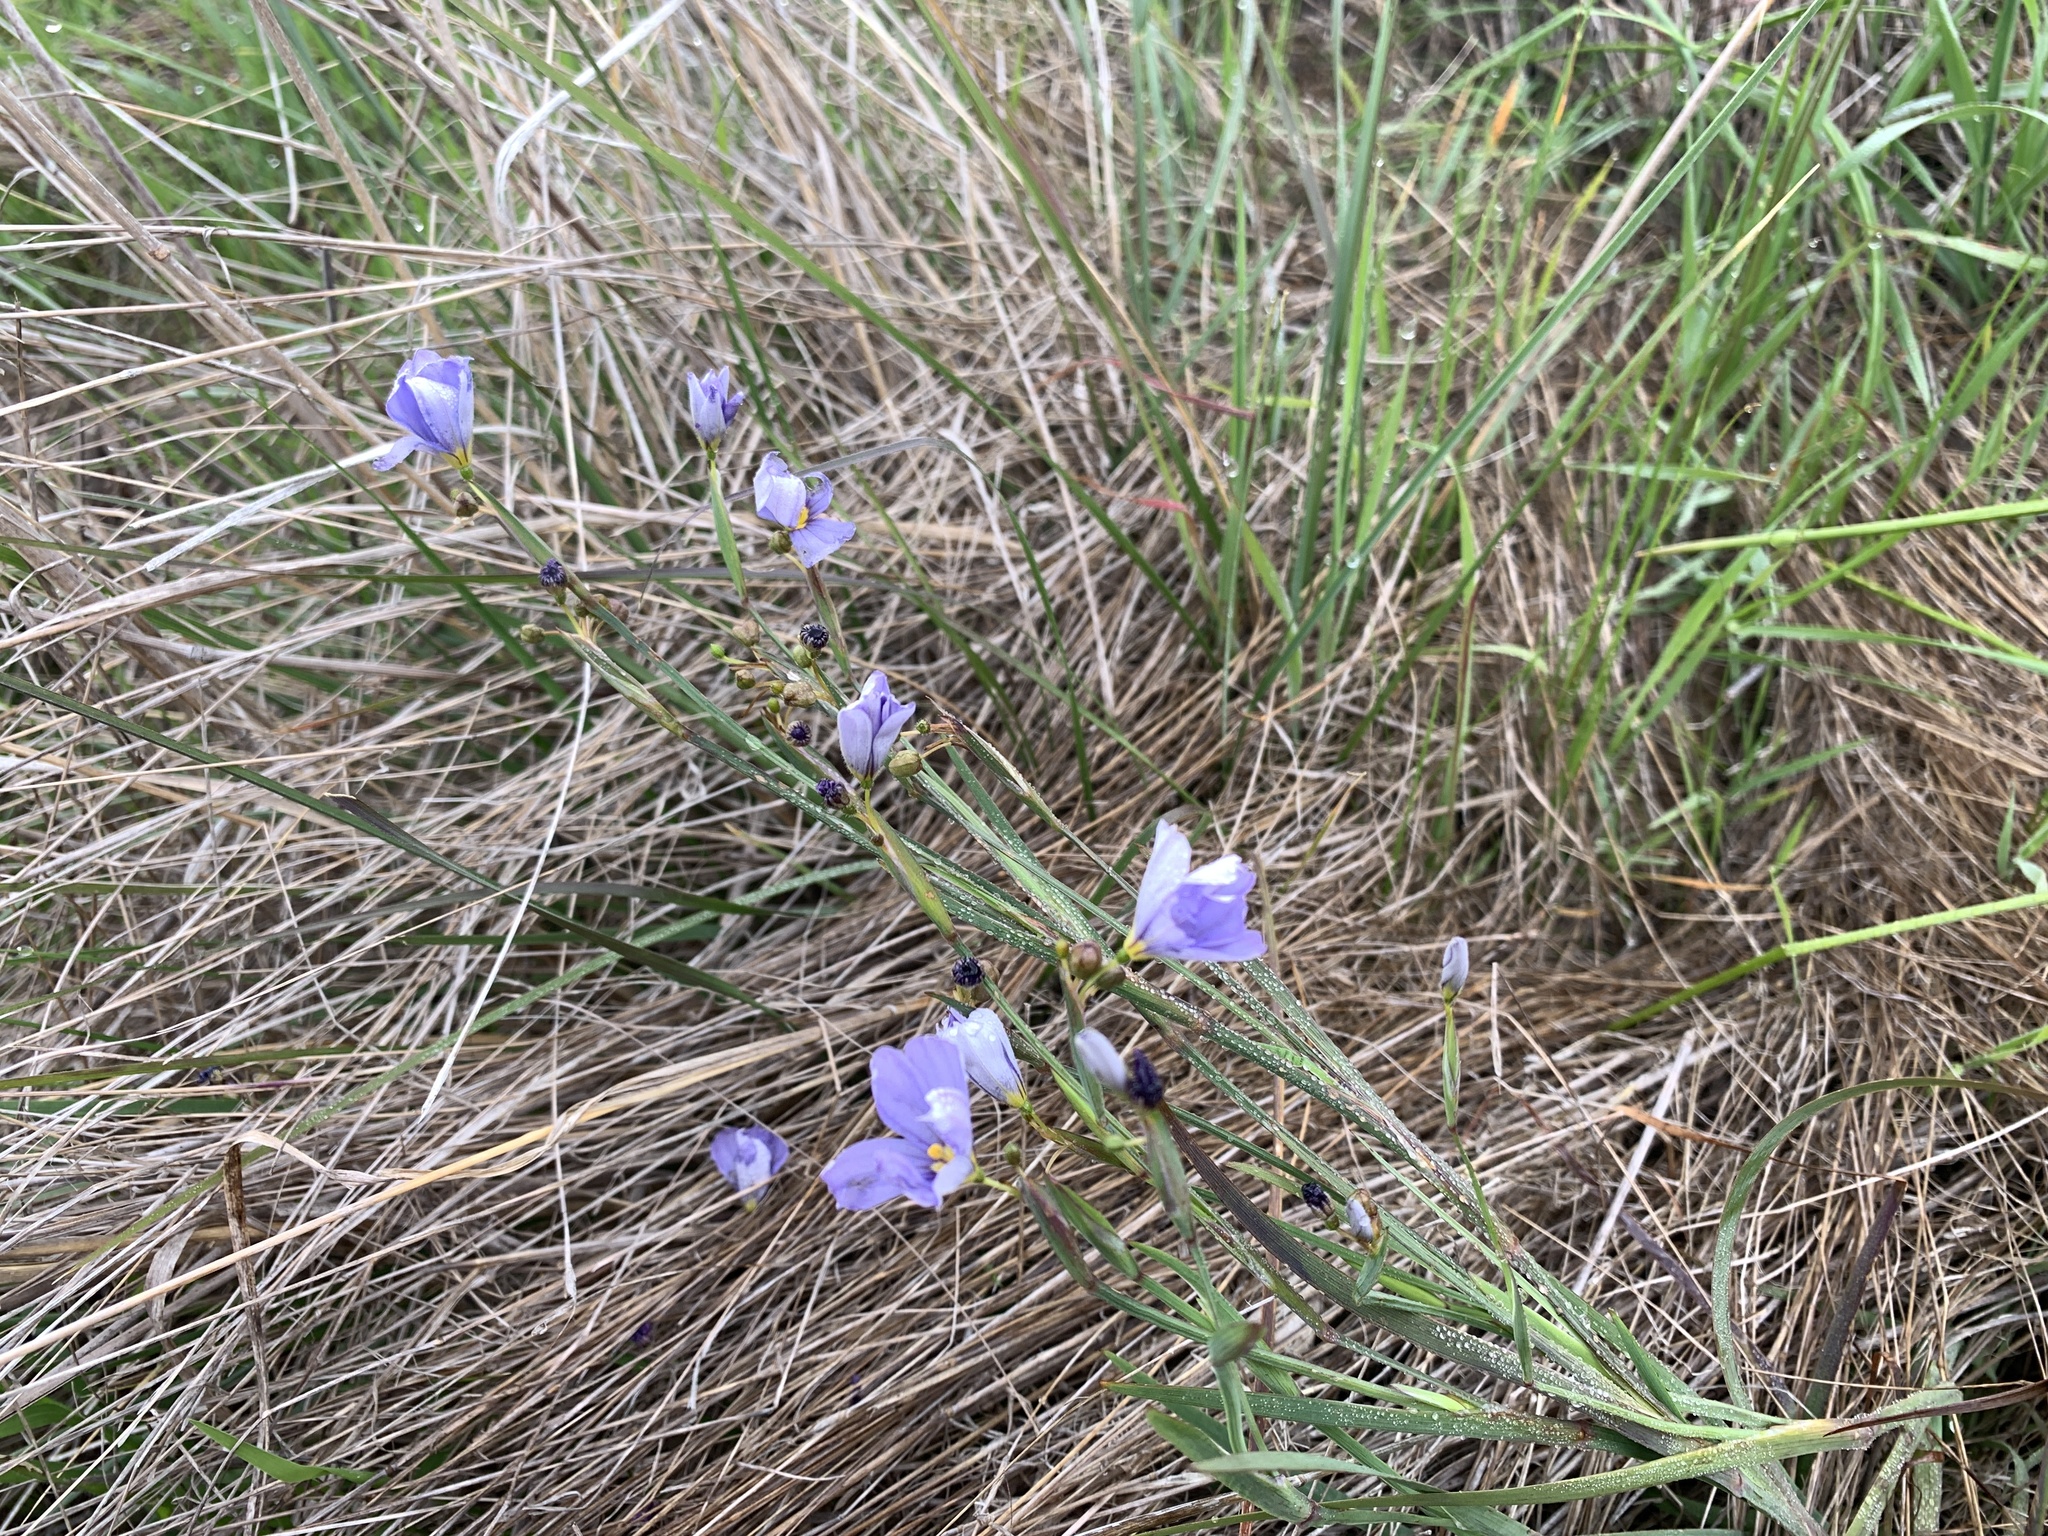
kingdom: Plantae
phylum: Tracheophyta
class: Liliopsida
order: Asparagales
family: Iridaceae
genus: Sisyrinchium
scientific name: Sisyrinchium bellum
